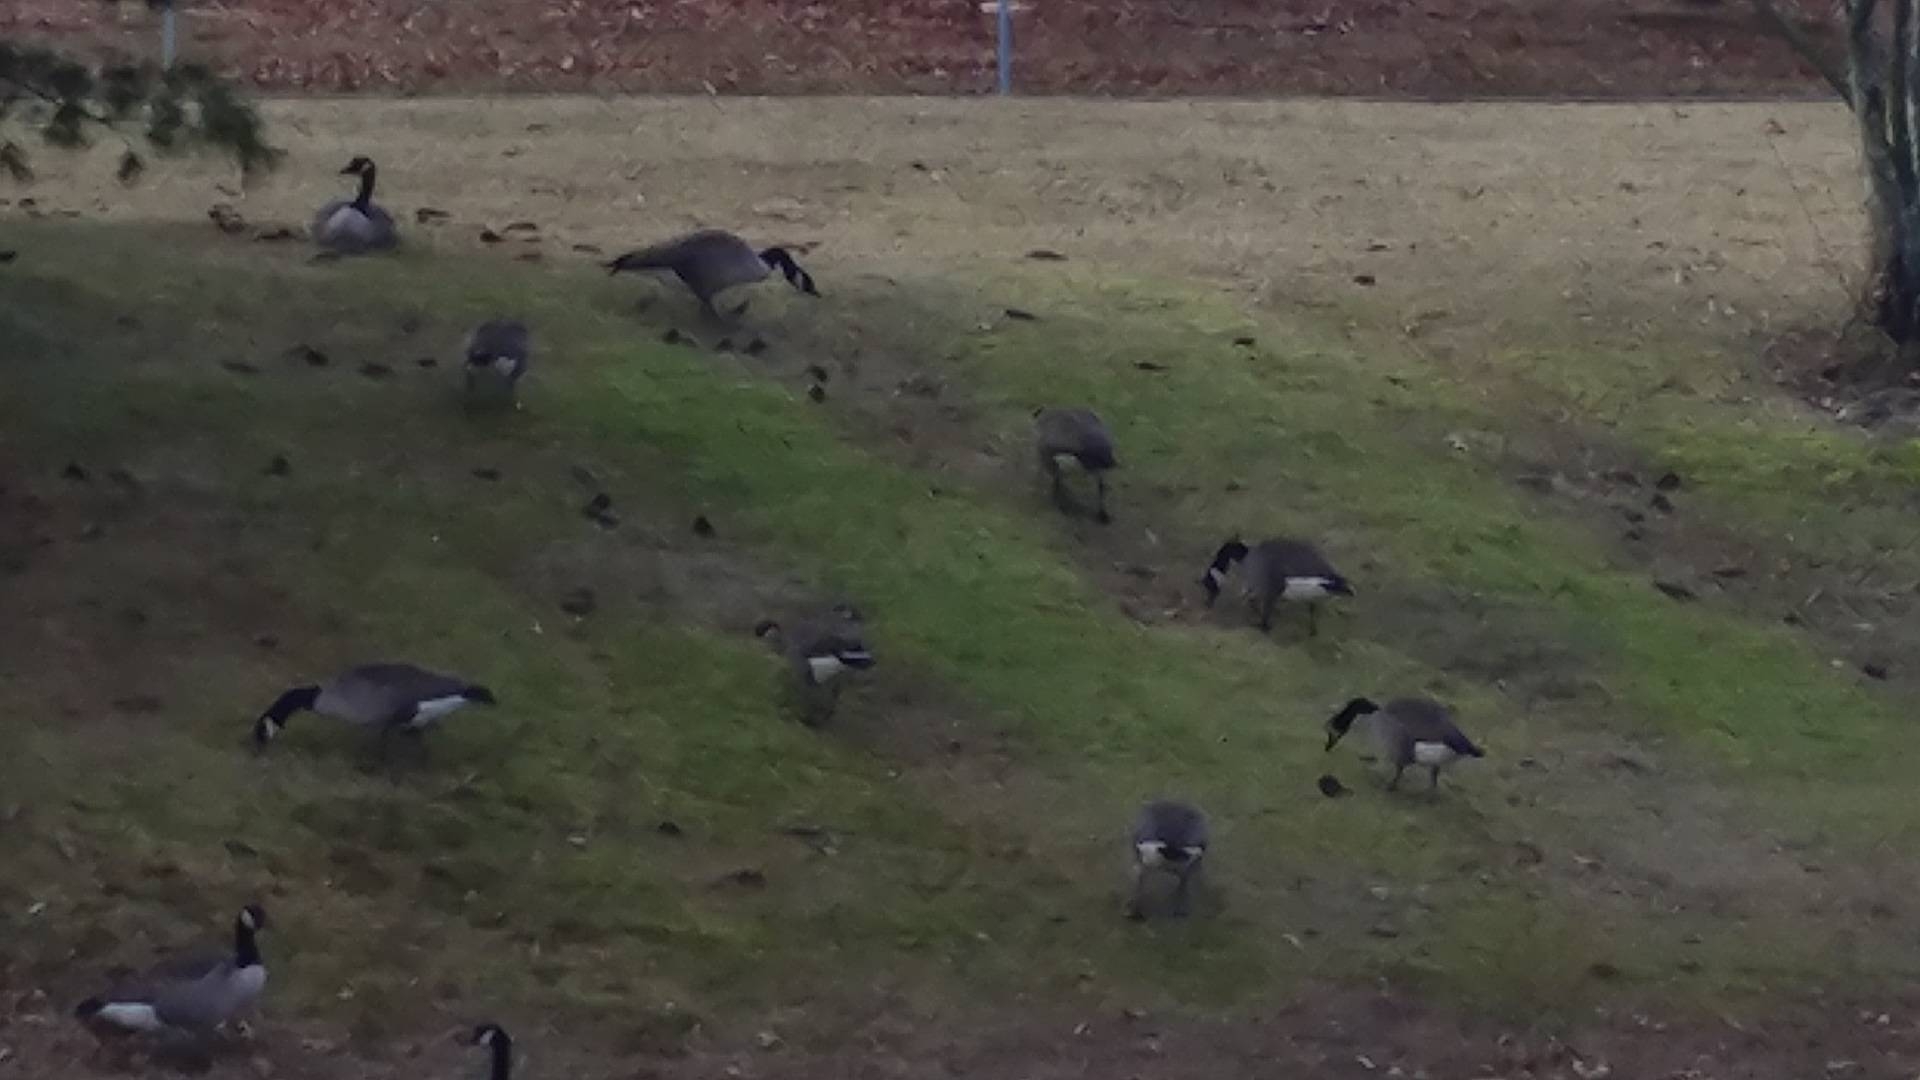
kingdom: Animalia
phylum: Chordata
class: Aves
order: Anseriformes
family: Anatidae
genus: Branta
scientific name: Branta canadensis
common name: Canada goose
